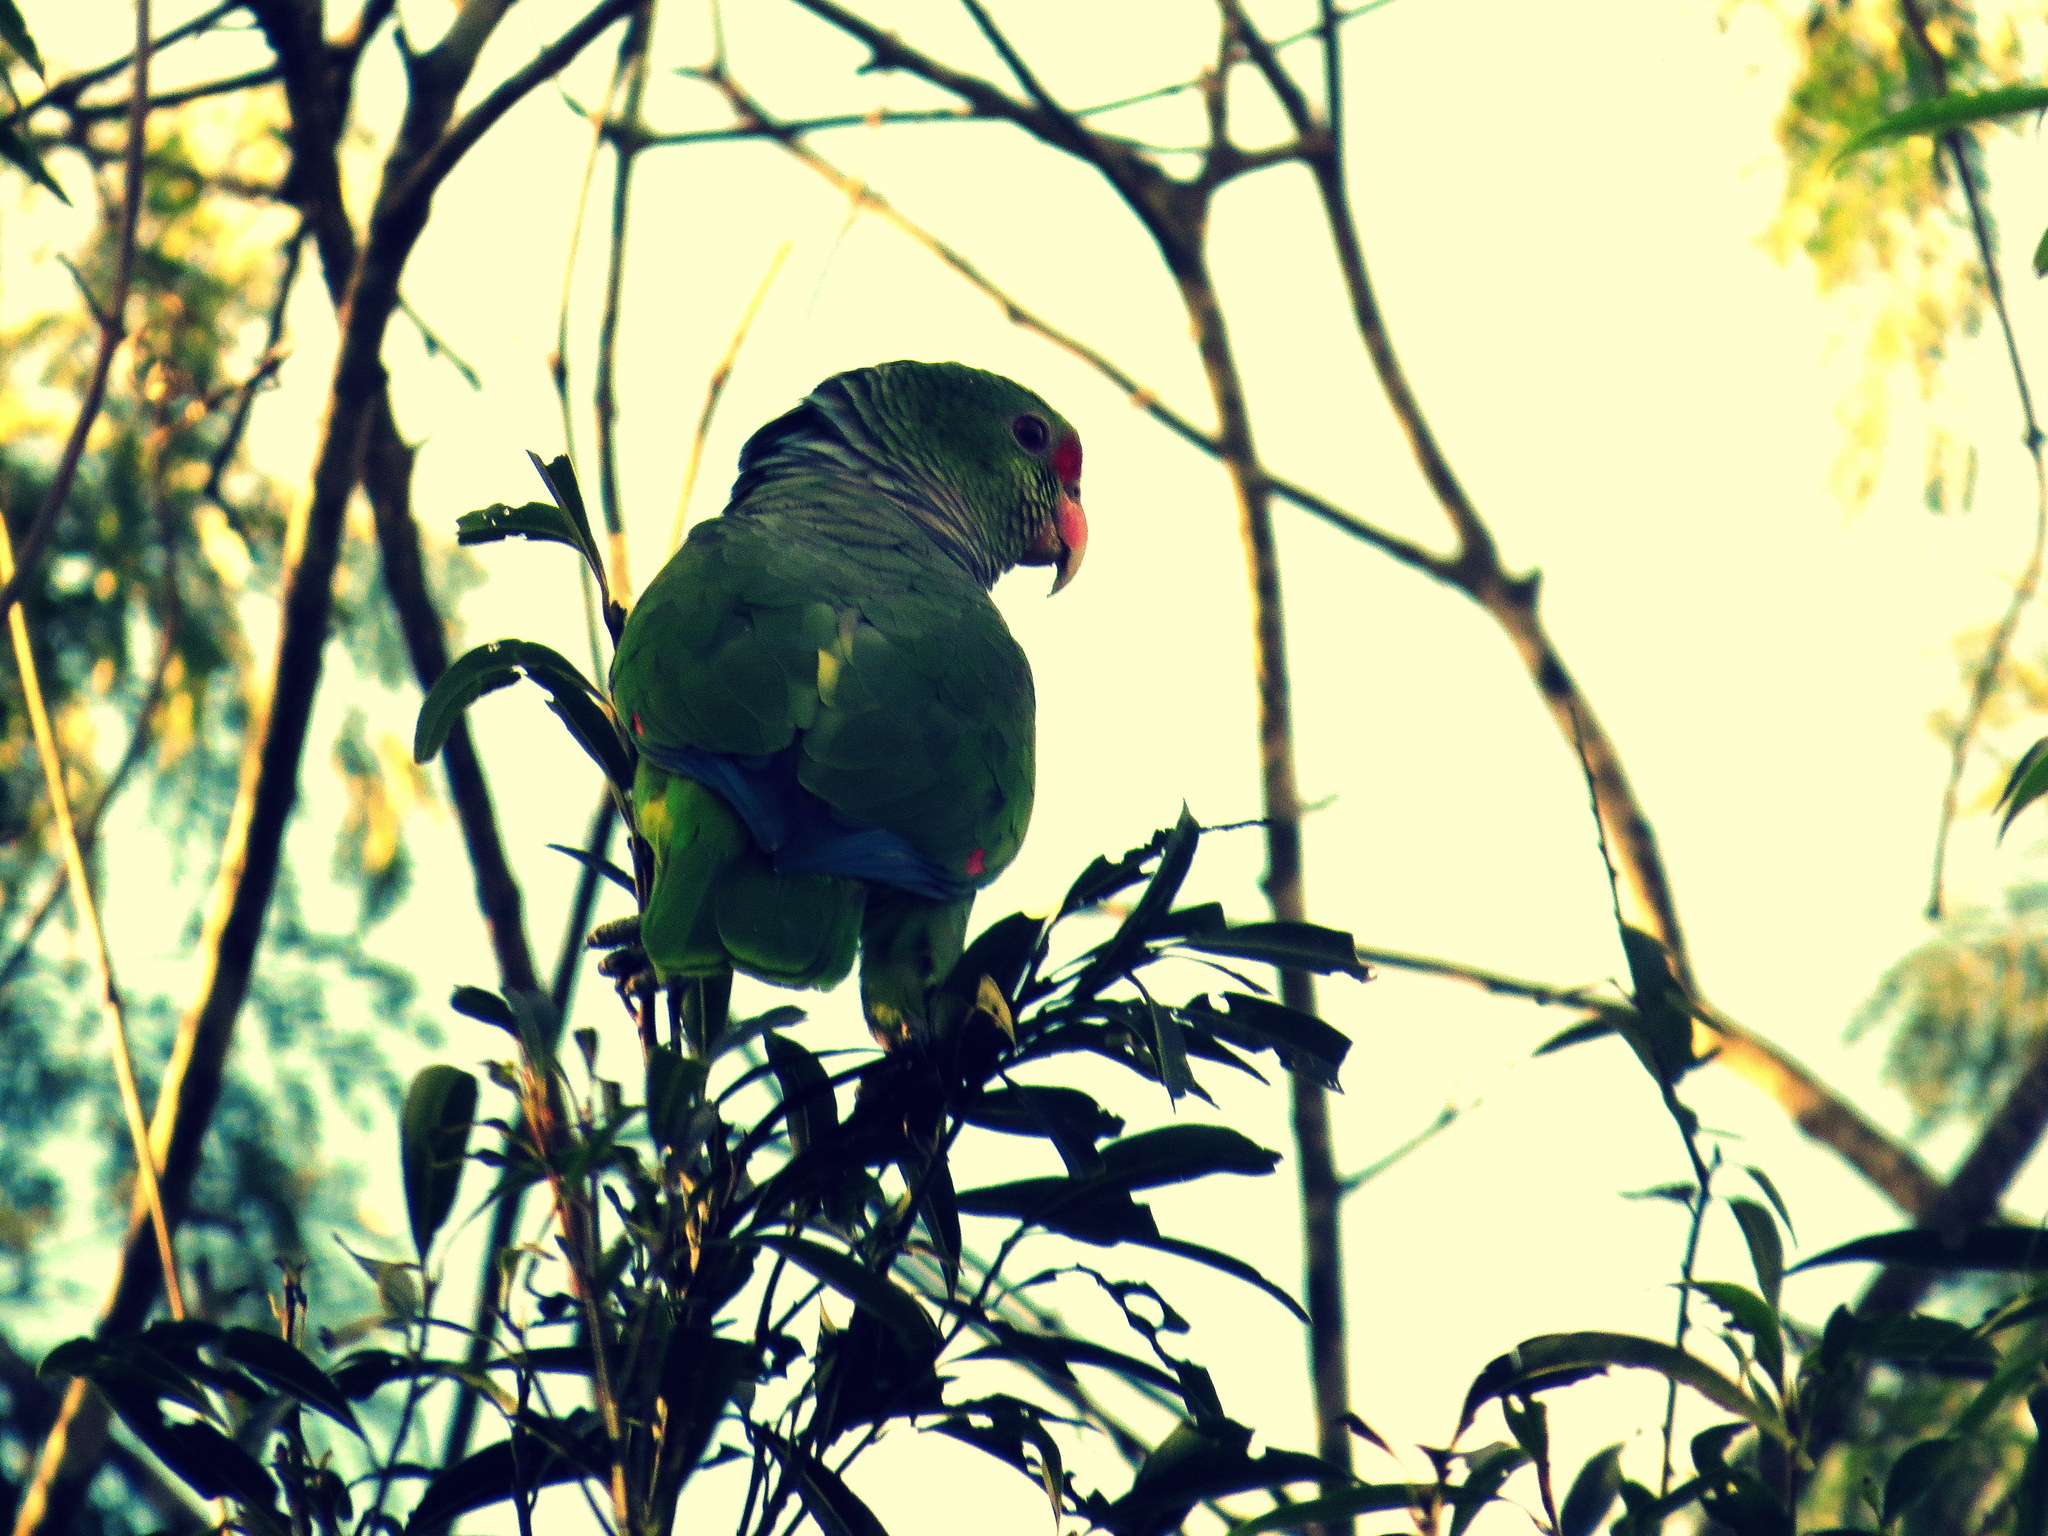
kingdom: Animalia
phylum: Chordata
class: Aves
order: Psittaciformes
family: Psittacidae
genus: Amazona
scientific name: Amazona vinacea
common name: Vinaceous-breasted amazon
